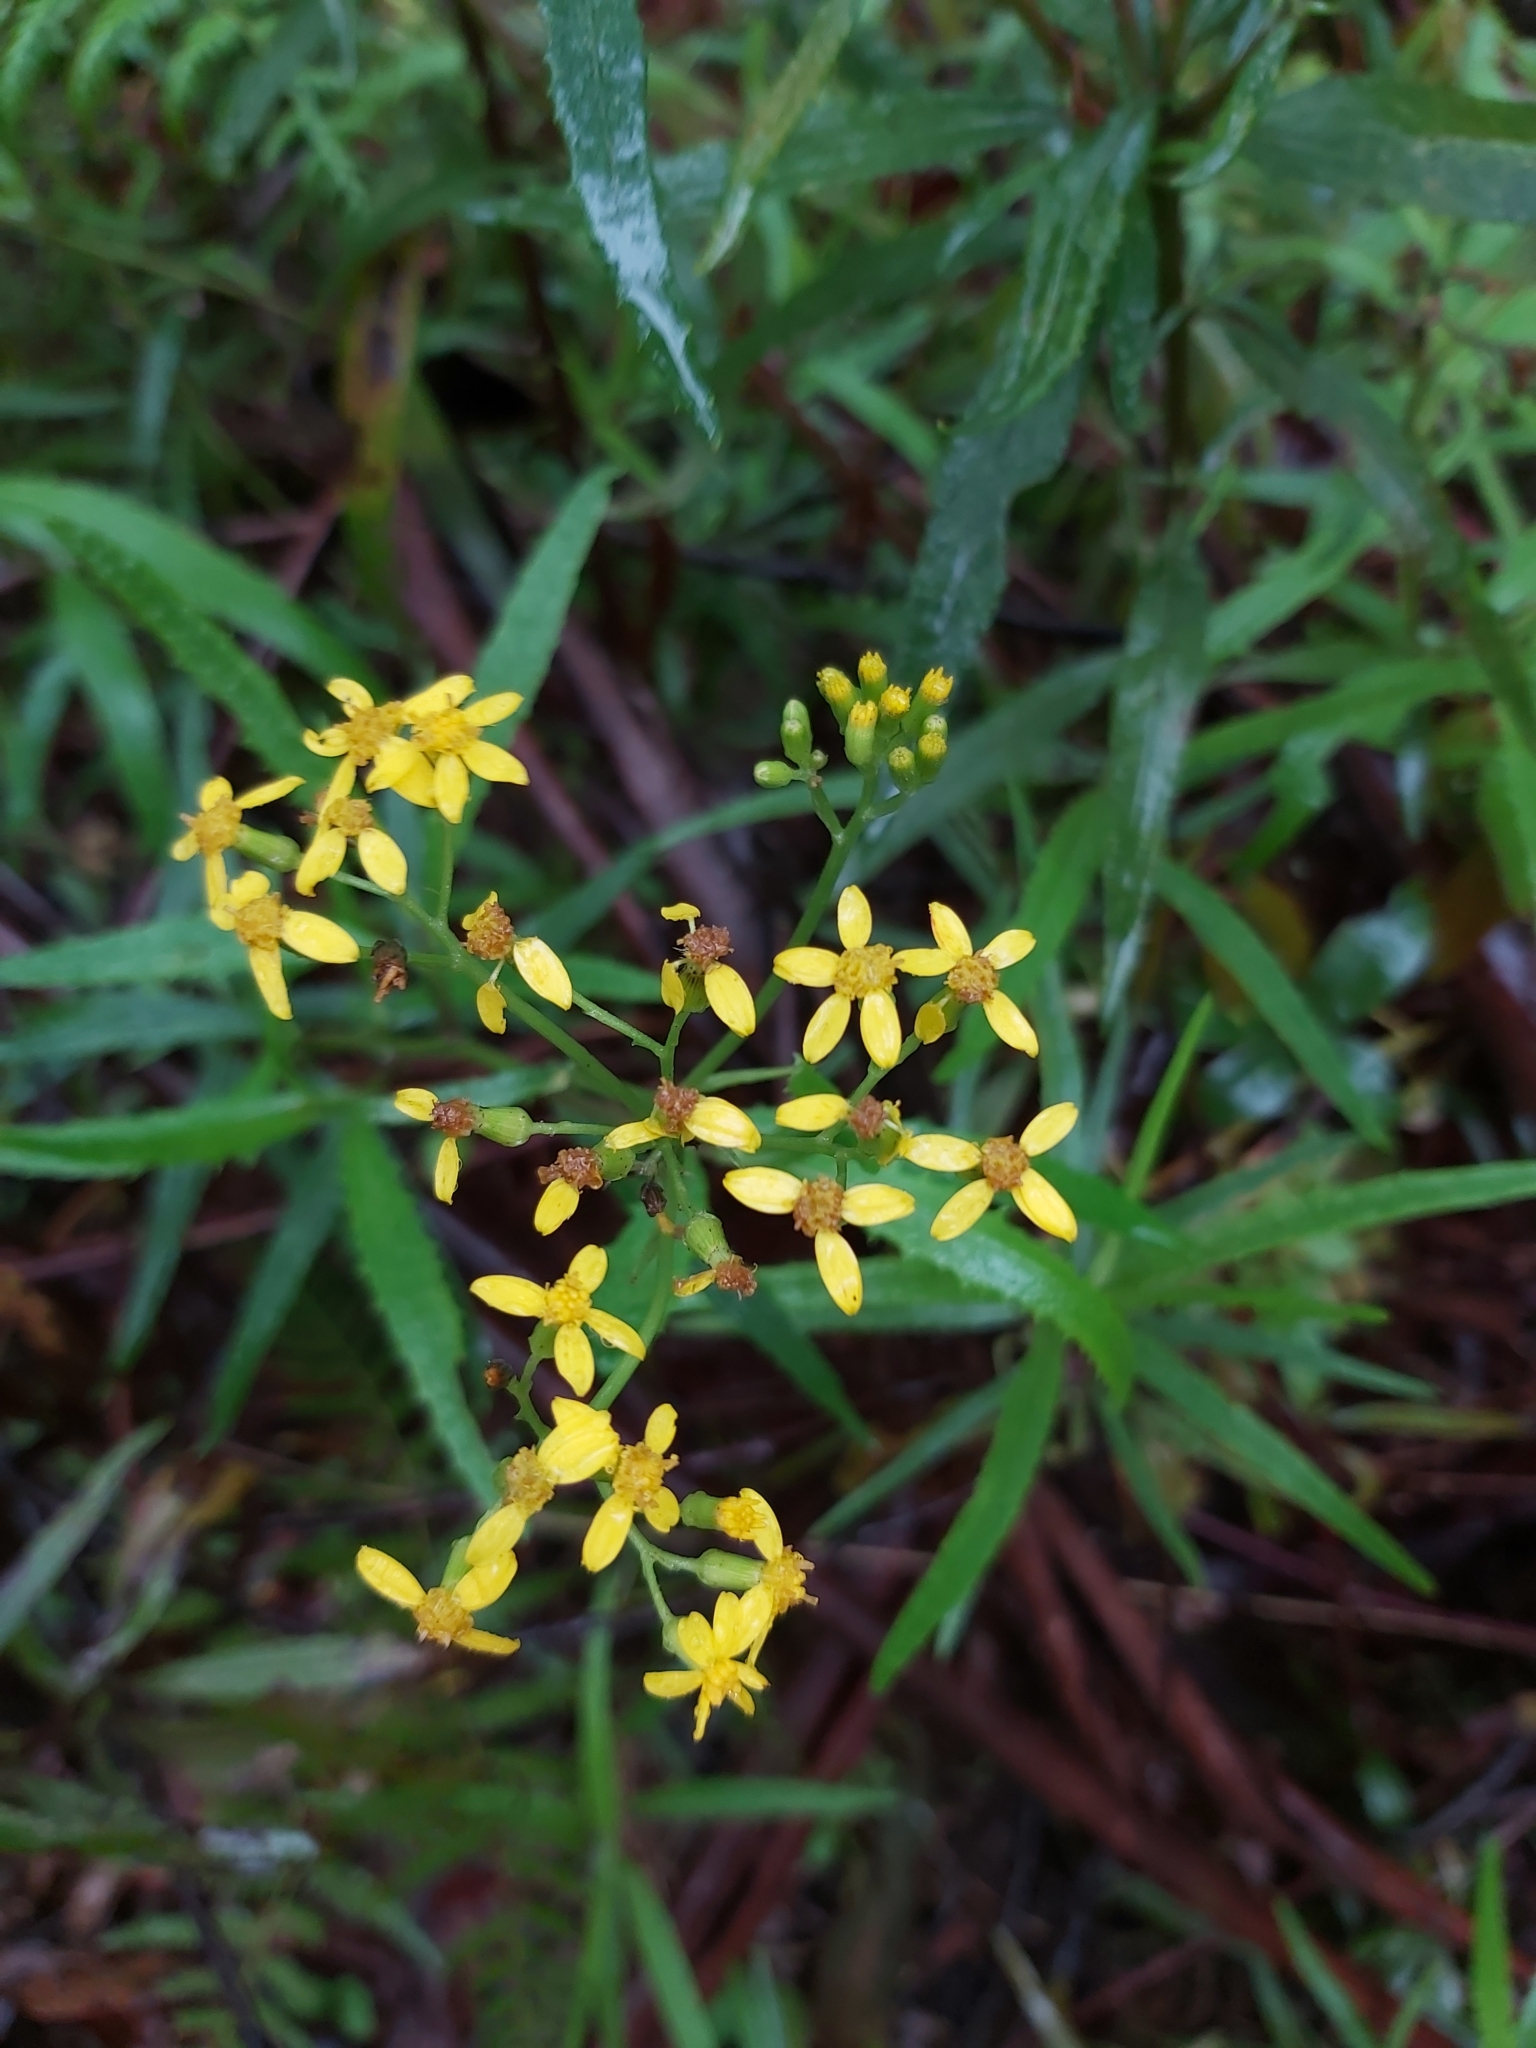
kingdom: Plantae
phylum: Tracheophyta
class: Magnoliopsida
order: Asterales
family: Asteraceae
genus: Senecio
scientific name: Senecio linearifolius
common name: Fireweed groundsel
